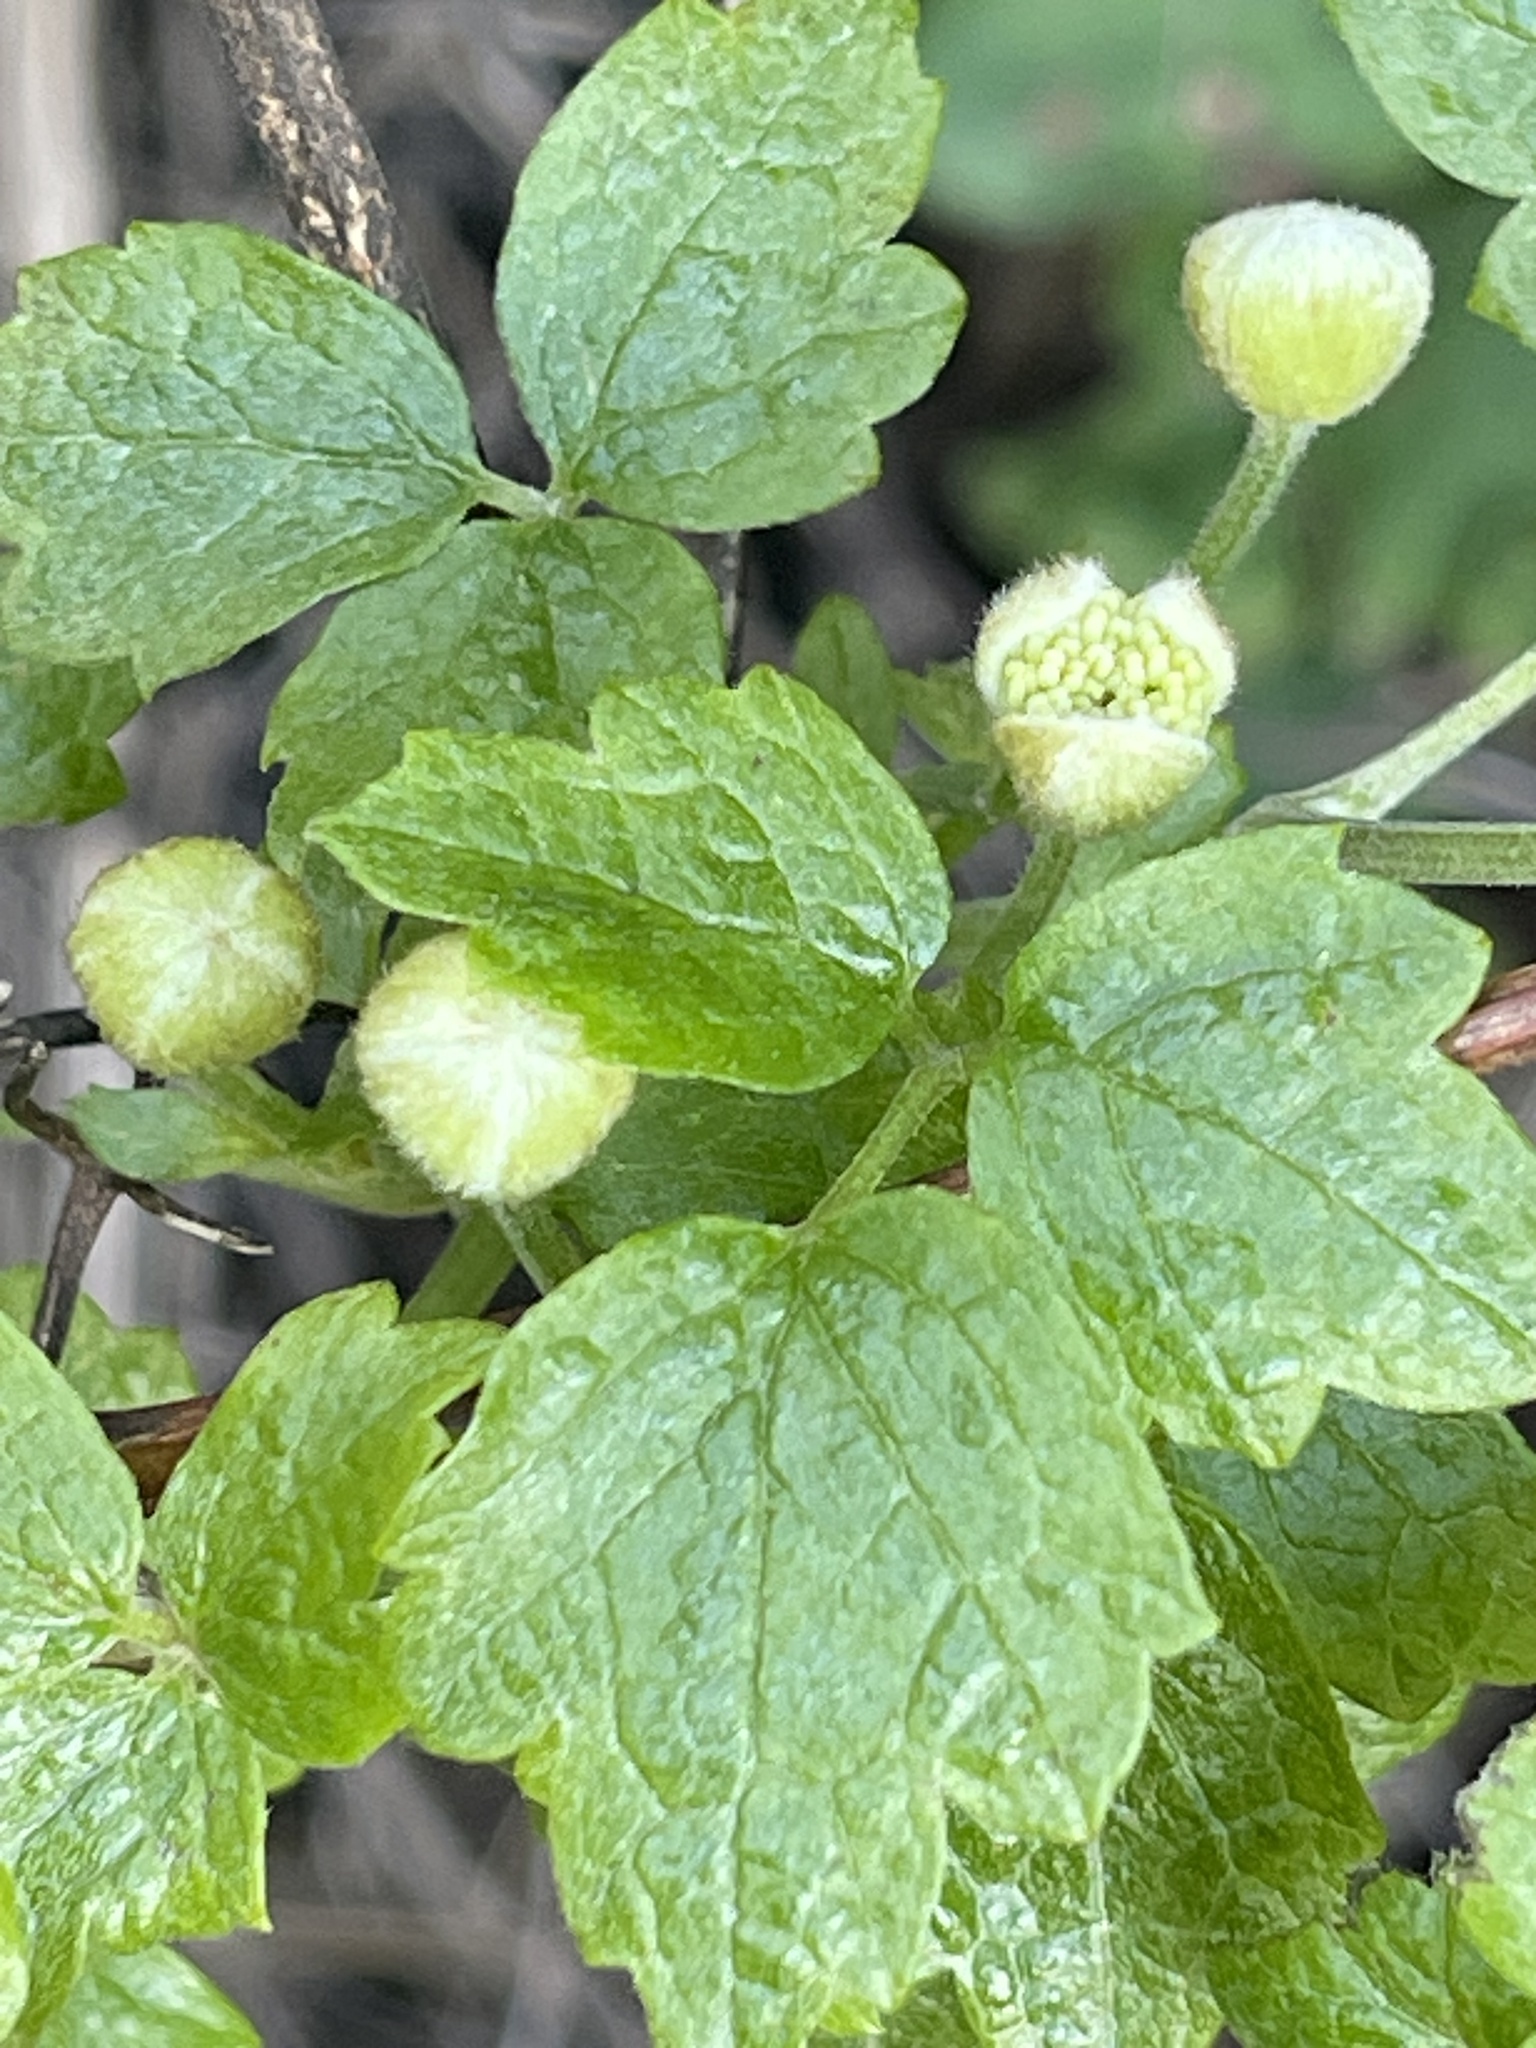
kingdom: Plantae
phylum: Tracheophyta
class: Magnoliopsida
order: Ranunculales
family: Ranunculaceae
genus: Clematis
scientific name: Clematis lasiantha
